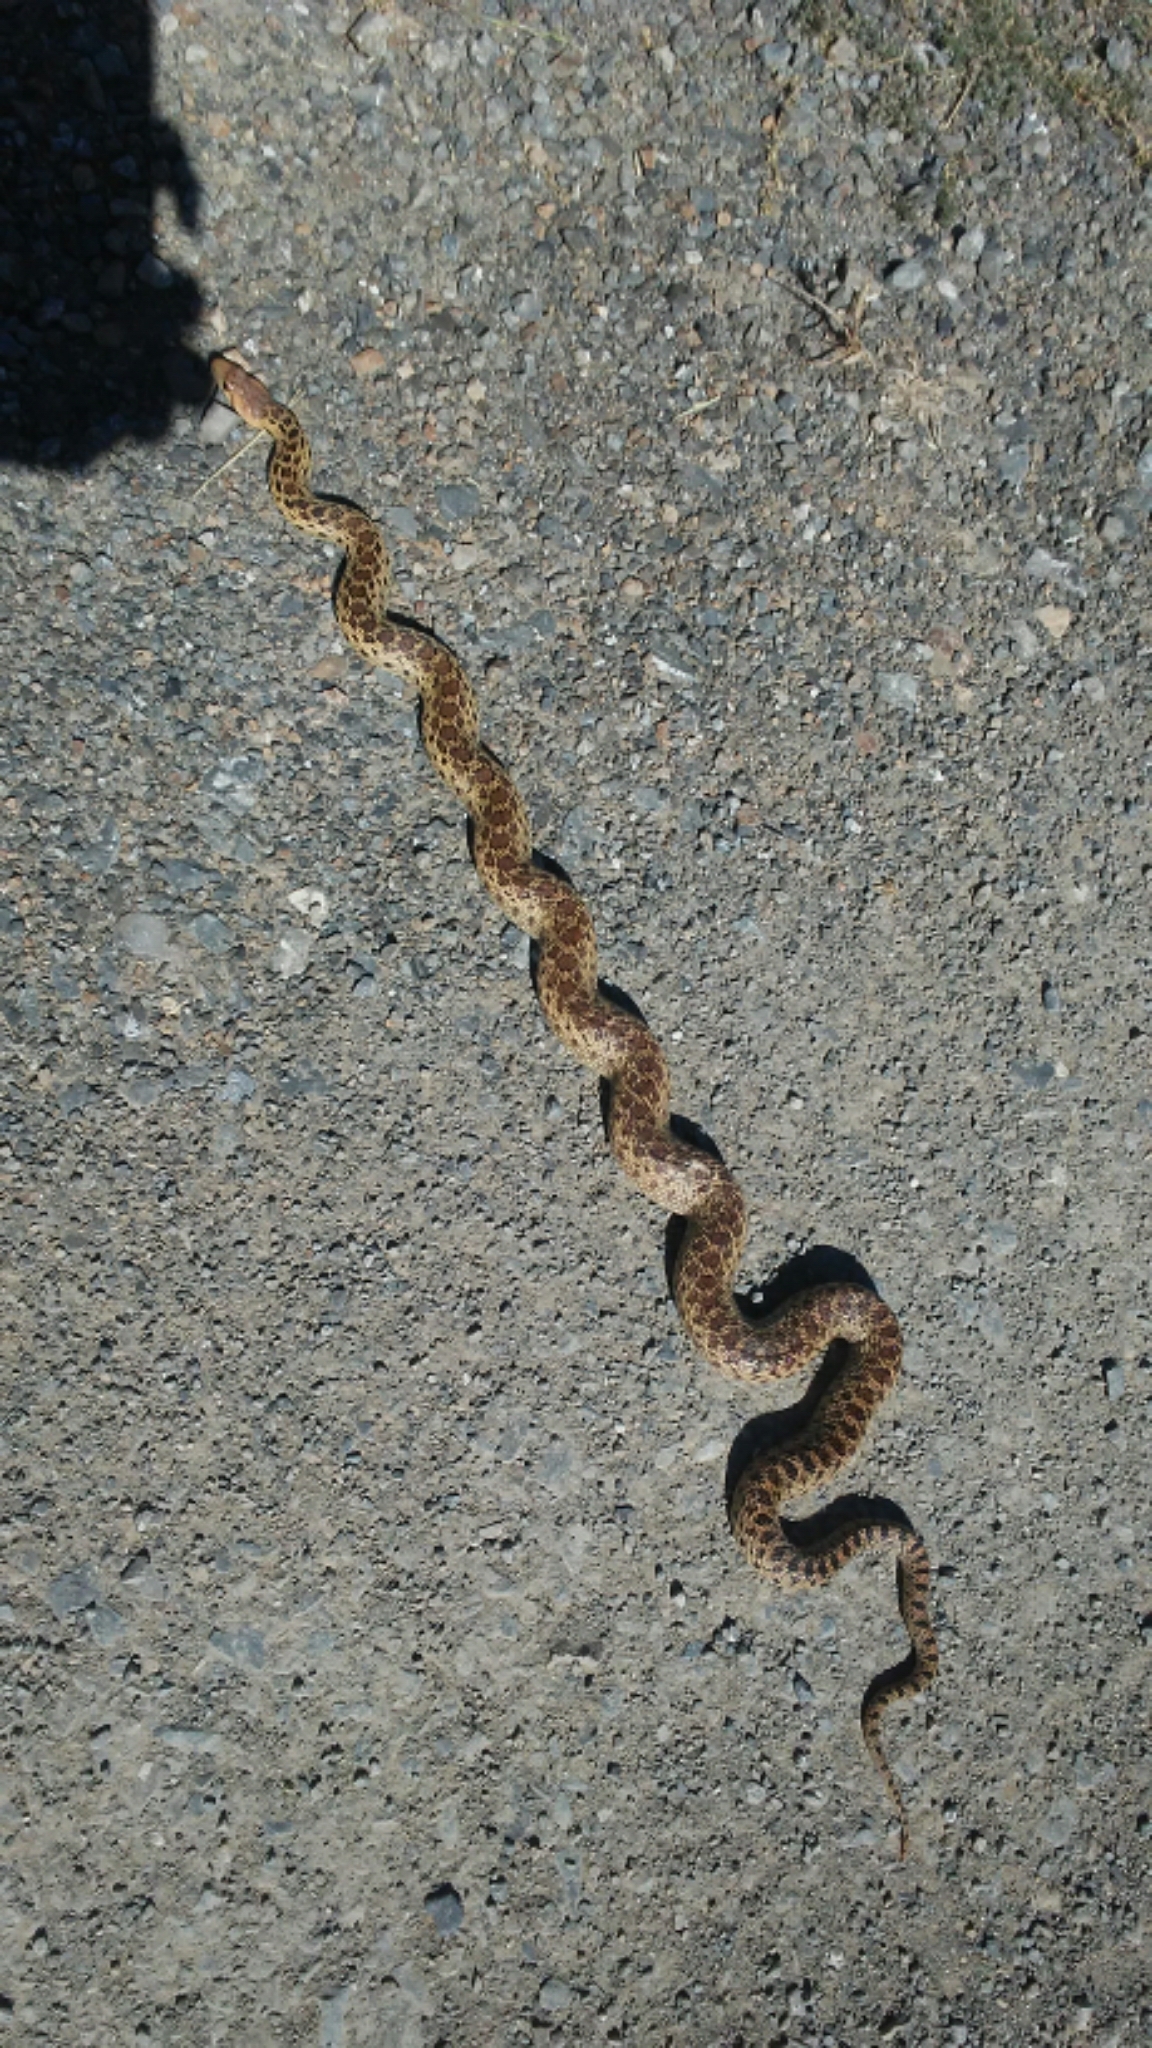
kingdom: Animalia
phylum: Chordata
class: Squamata
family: Colubridae
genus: Pituophis
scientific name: Pituophis catenifer
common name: Gopher snake
